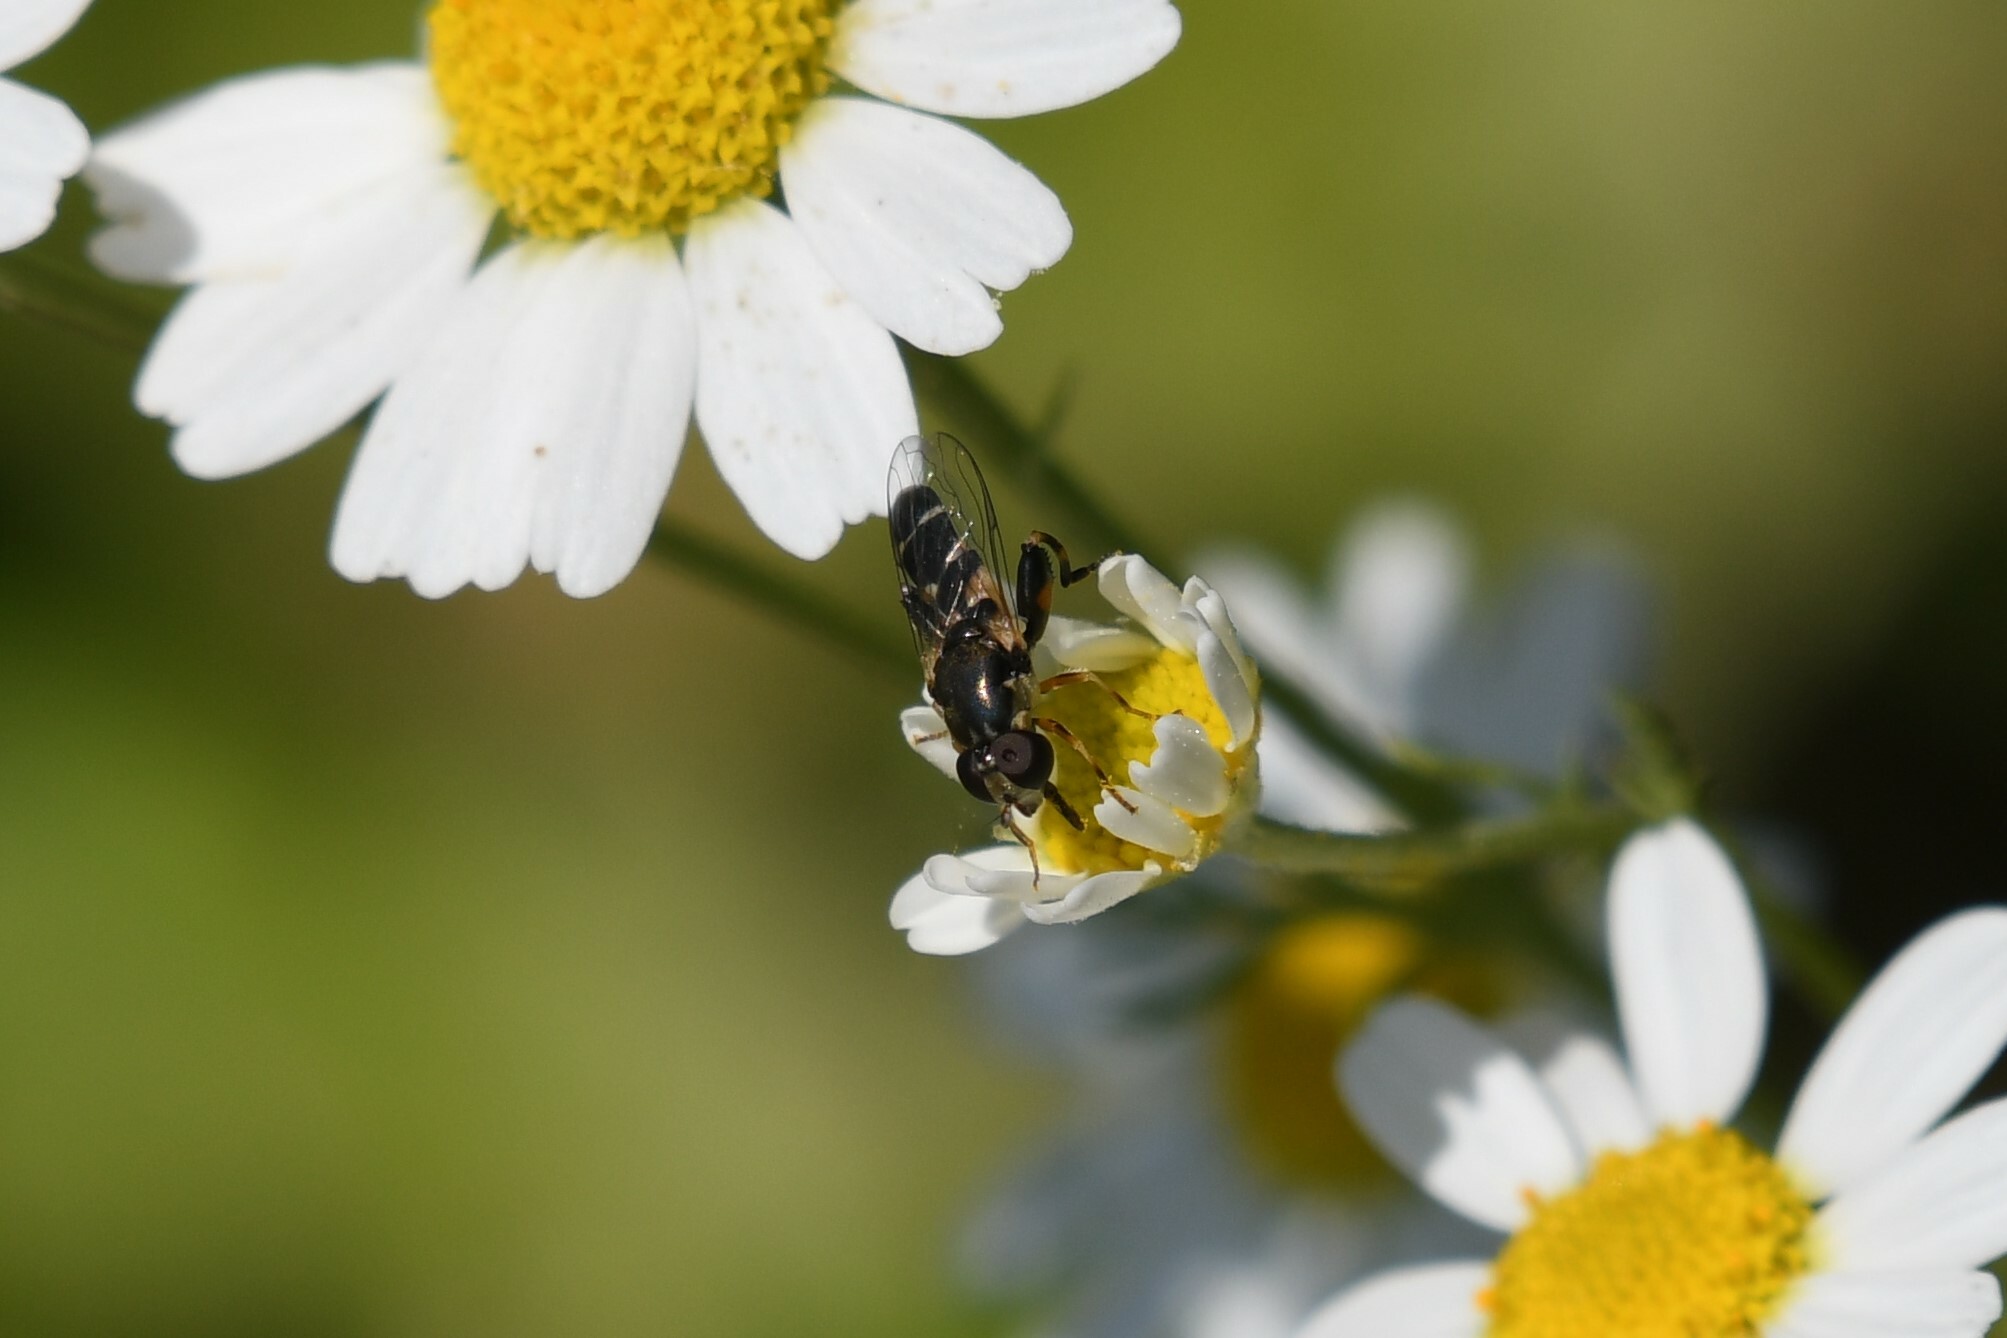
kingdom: Animalia
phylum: Arthropoda
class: Insecta
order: Diptera
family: Syrphidae
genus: Syritta
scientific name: Syritta pipiens
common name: Hover fly
